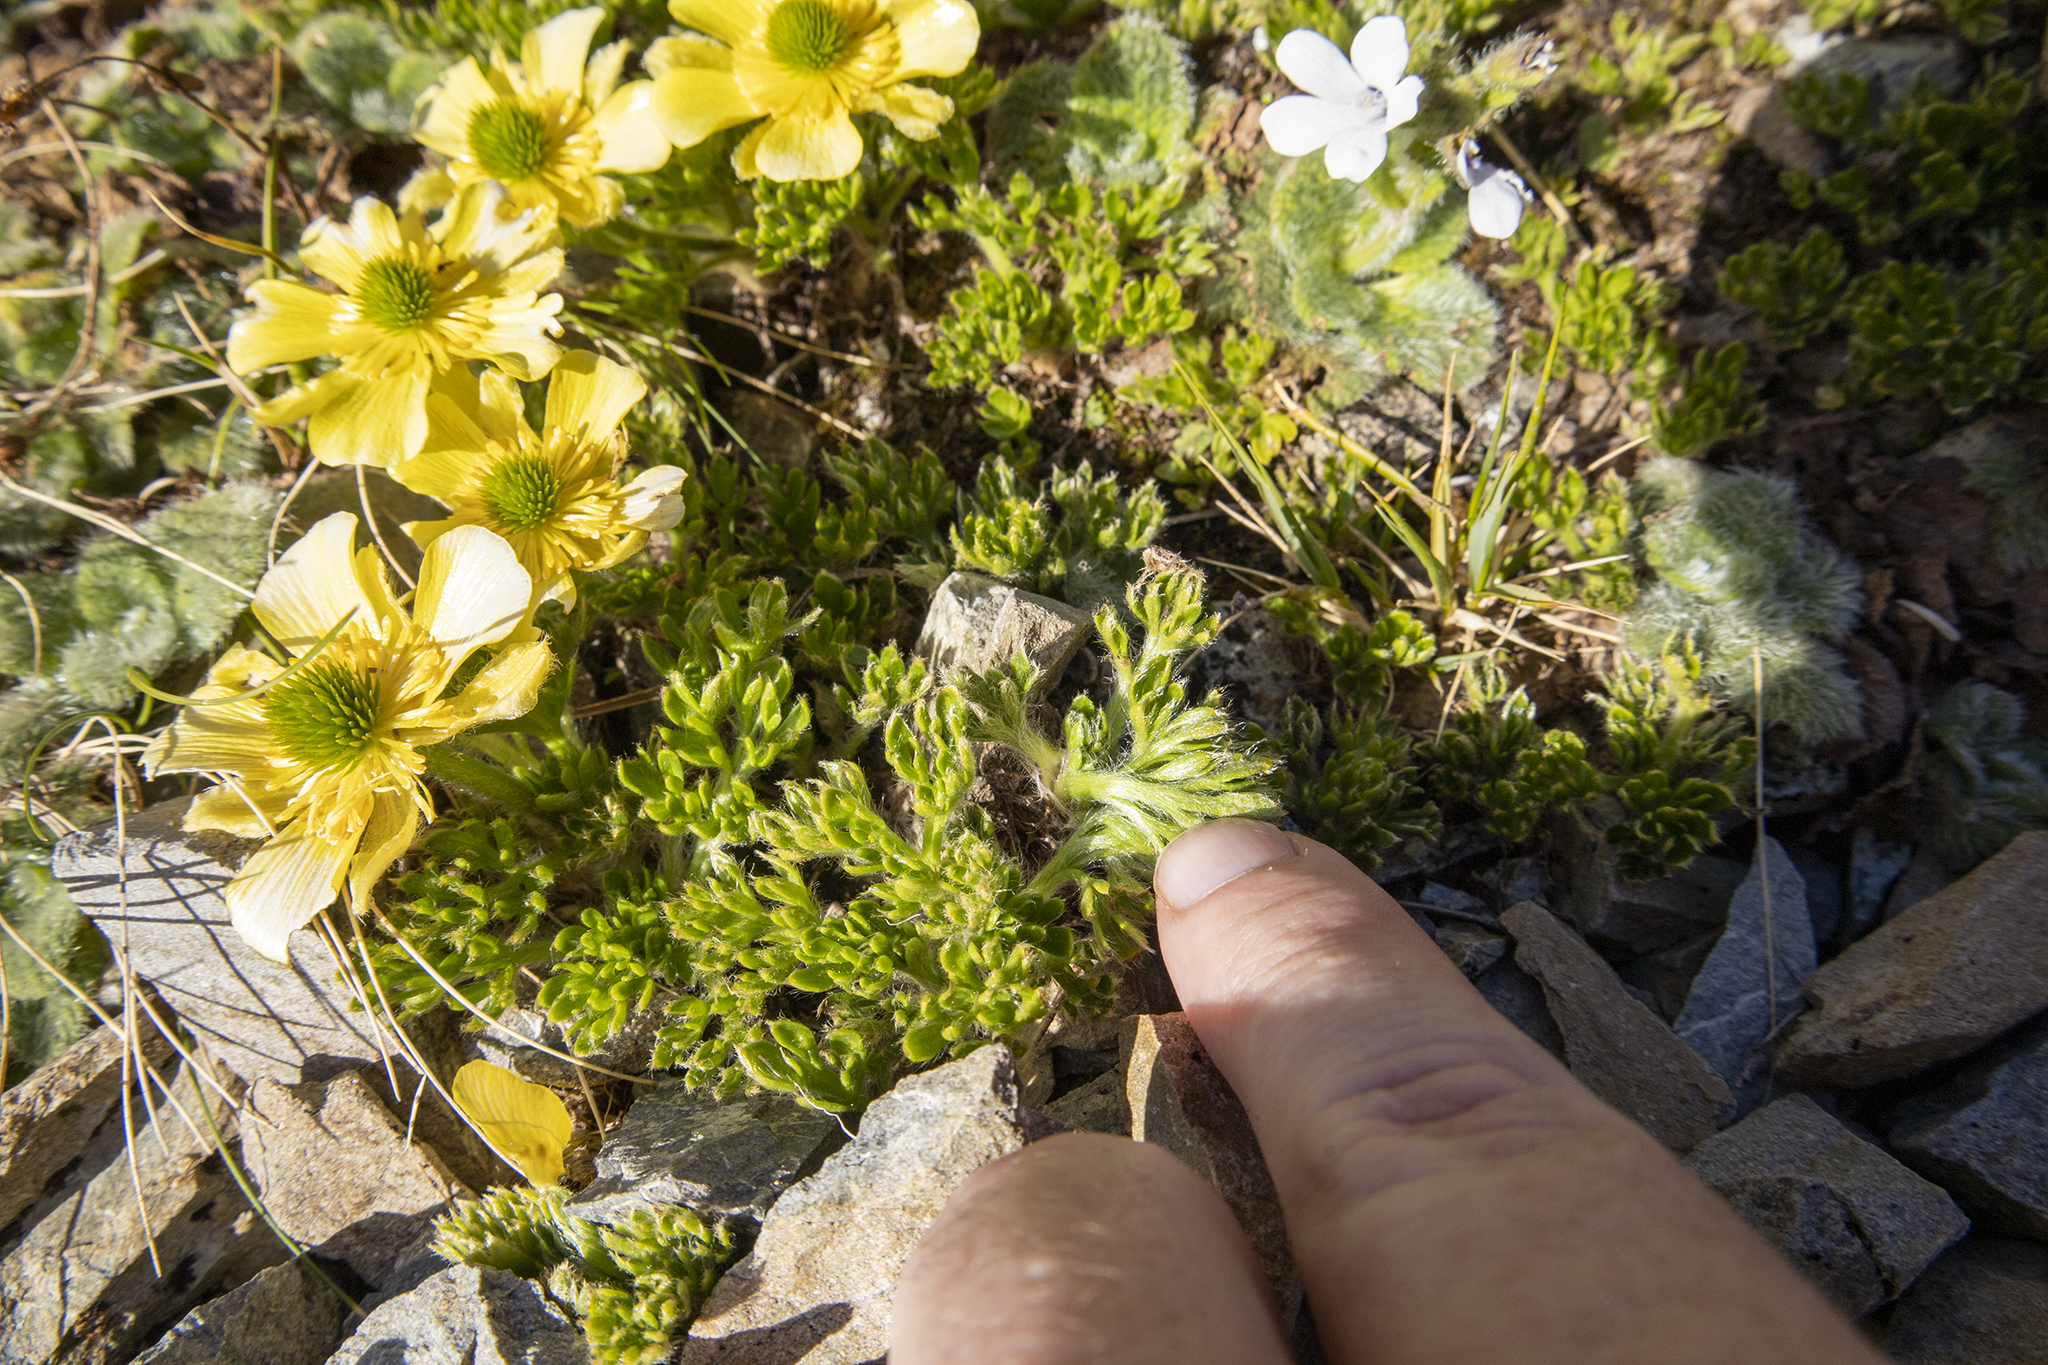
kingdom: Plantae
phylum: Tracheophyta
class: Magnoliopsida
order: Ranunculales
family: Ranunculaceae
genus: Ranunculus
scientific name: Ranunculus sericophyllus
